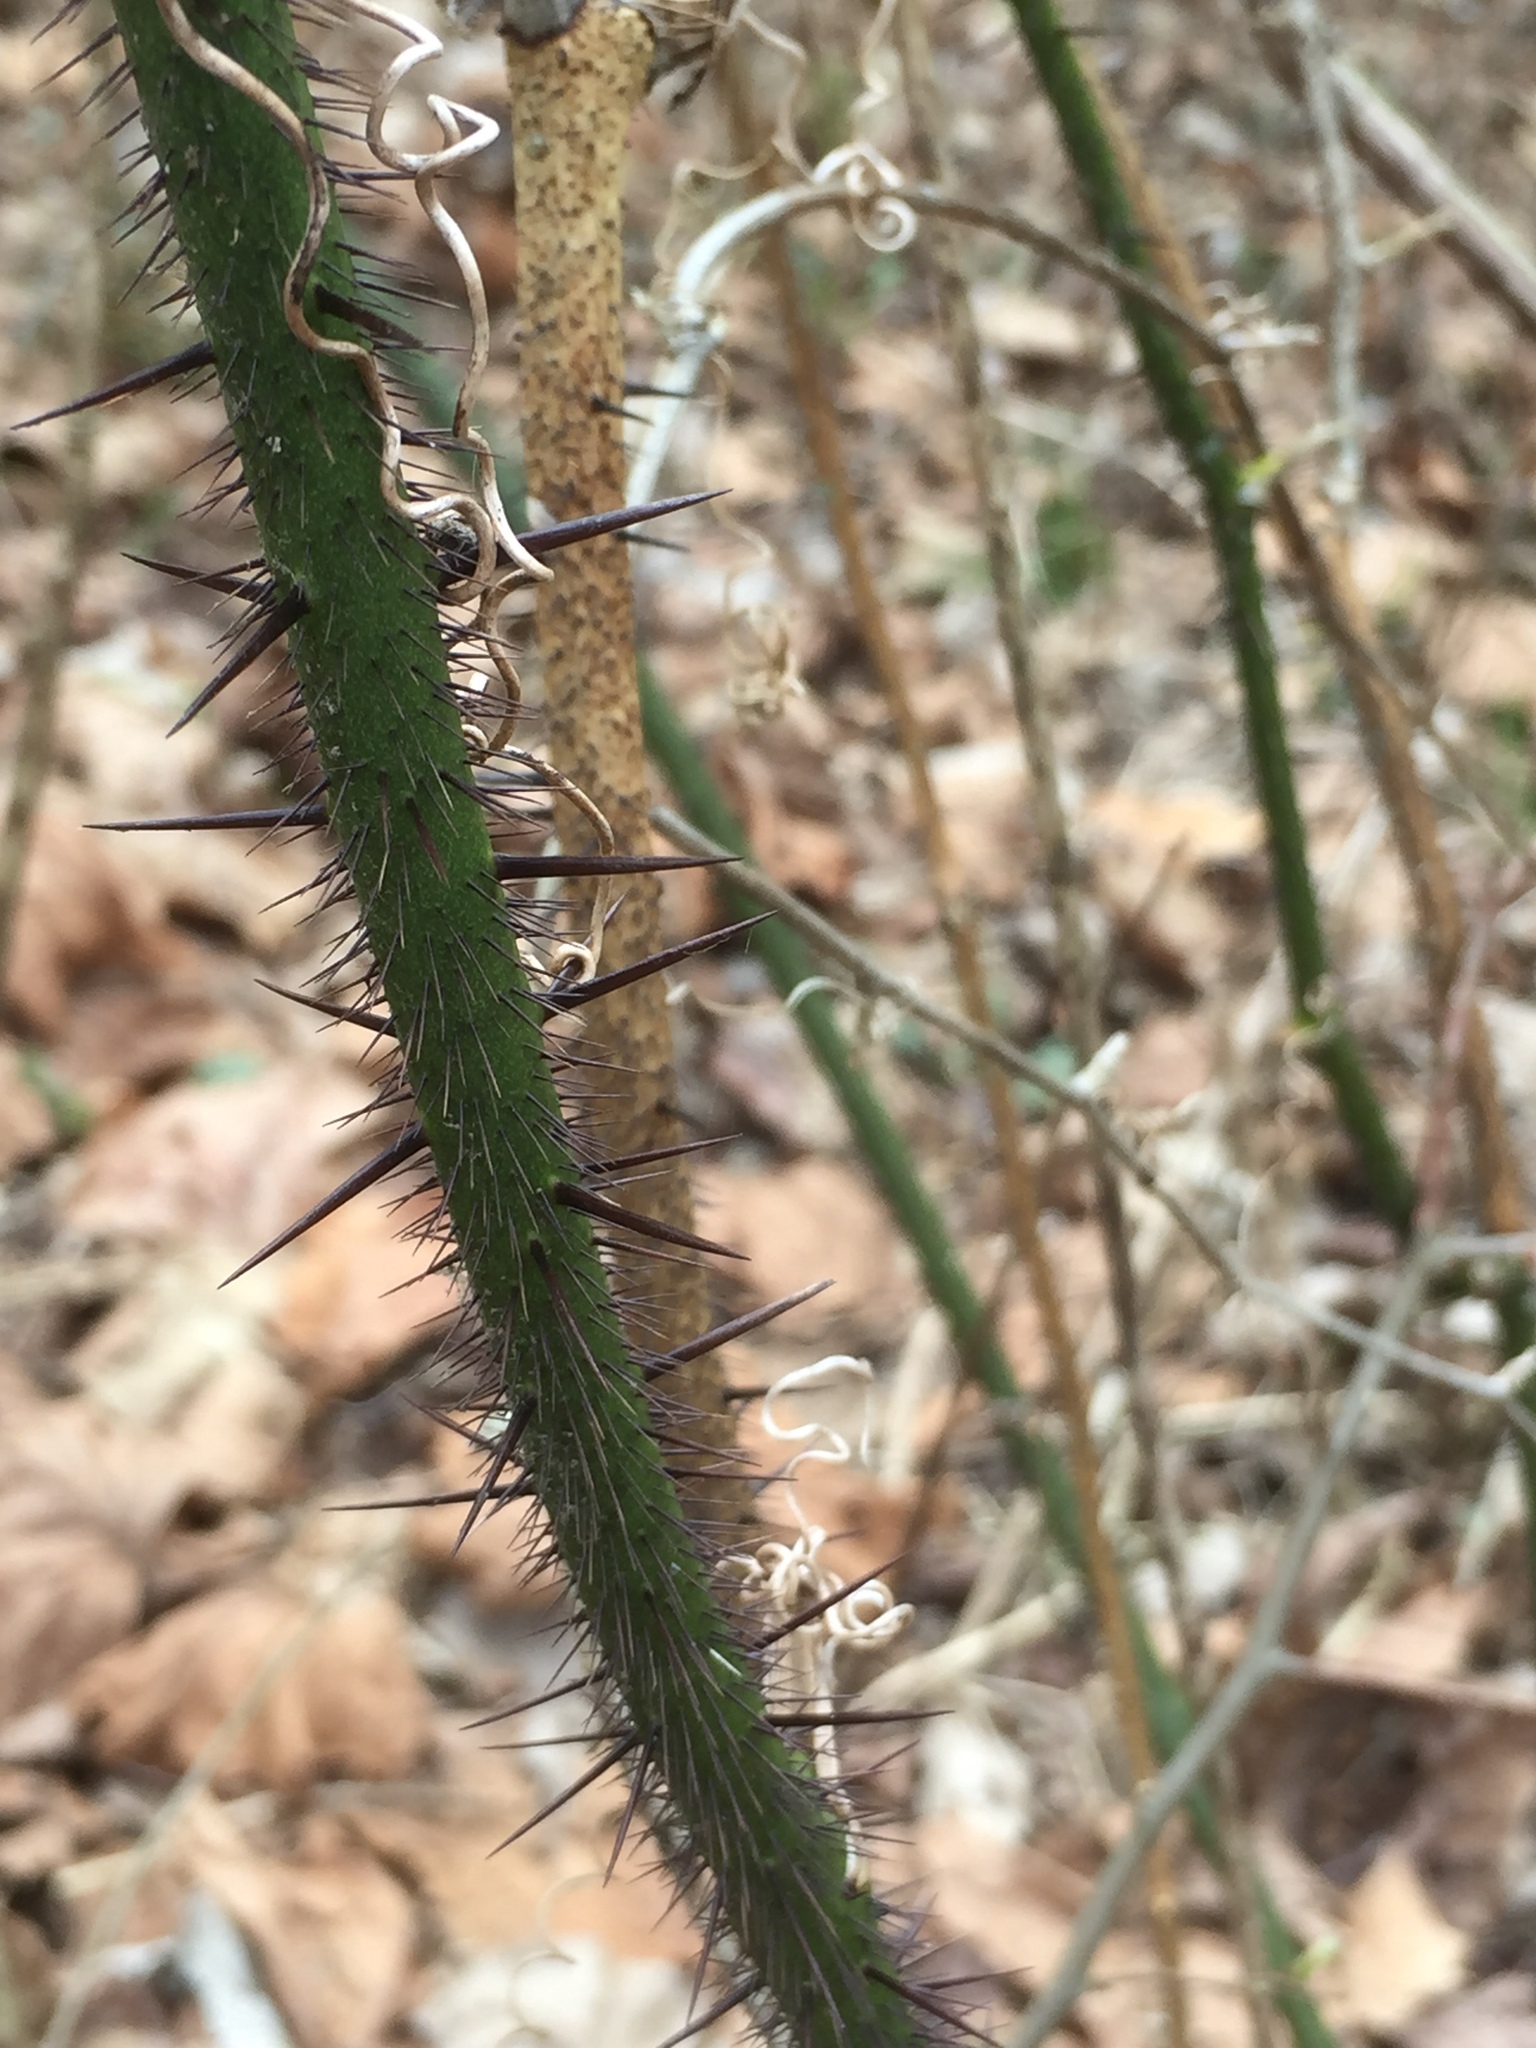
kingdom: Plantae
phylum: Tracheophyta
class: Liliopsida
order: Liliales
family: Smilacaceae
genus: Smilax
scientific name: Smilax tamnoides
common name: Hellfetter
